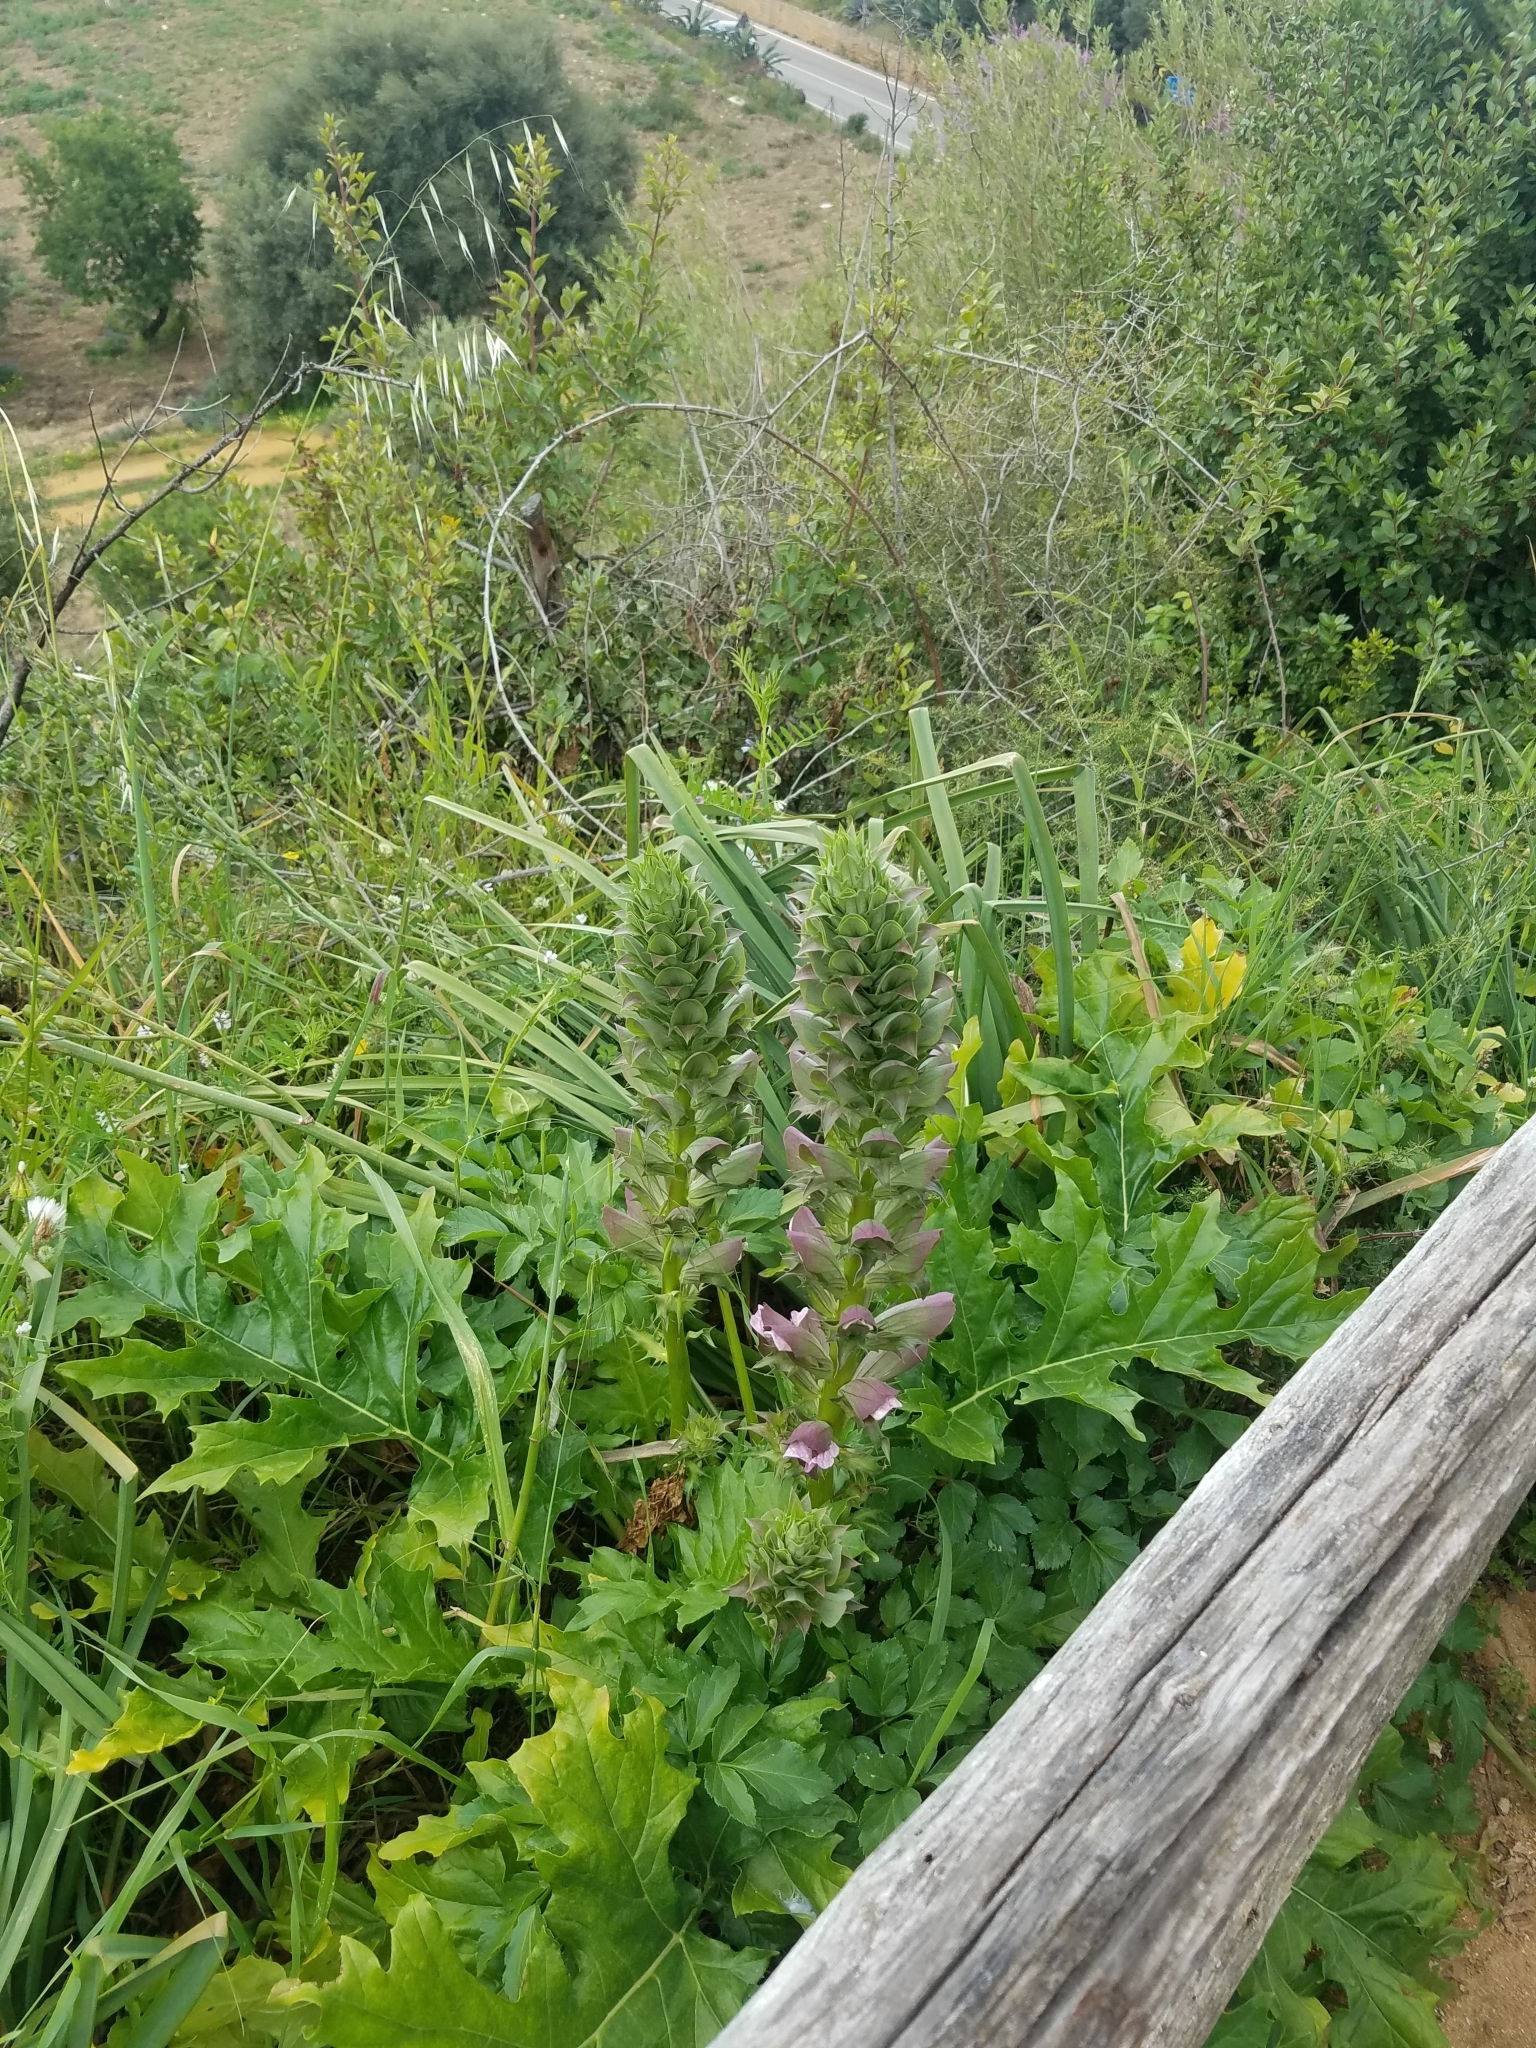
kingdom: Plantae
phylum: Tracheophyta
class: Magnoliopsida
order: Lamiales
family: Acanthaceae
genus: Acanthus
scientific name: Acanthus mollis
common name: Bear's-breech
